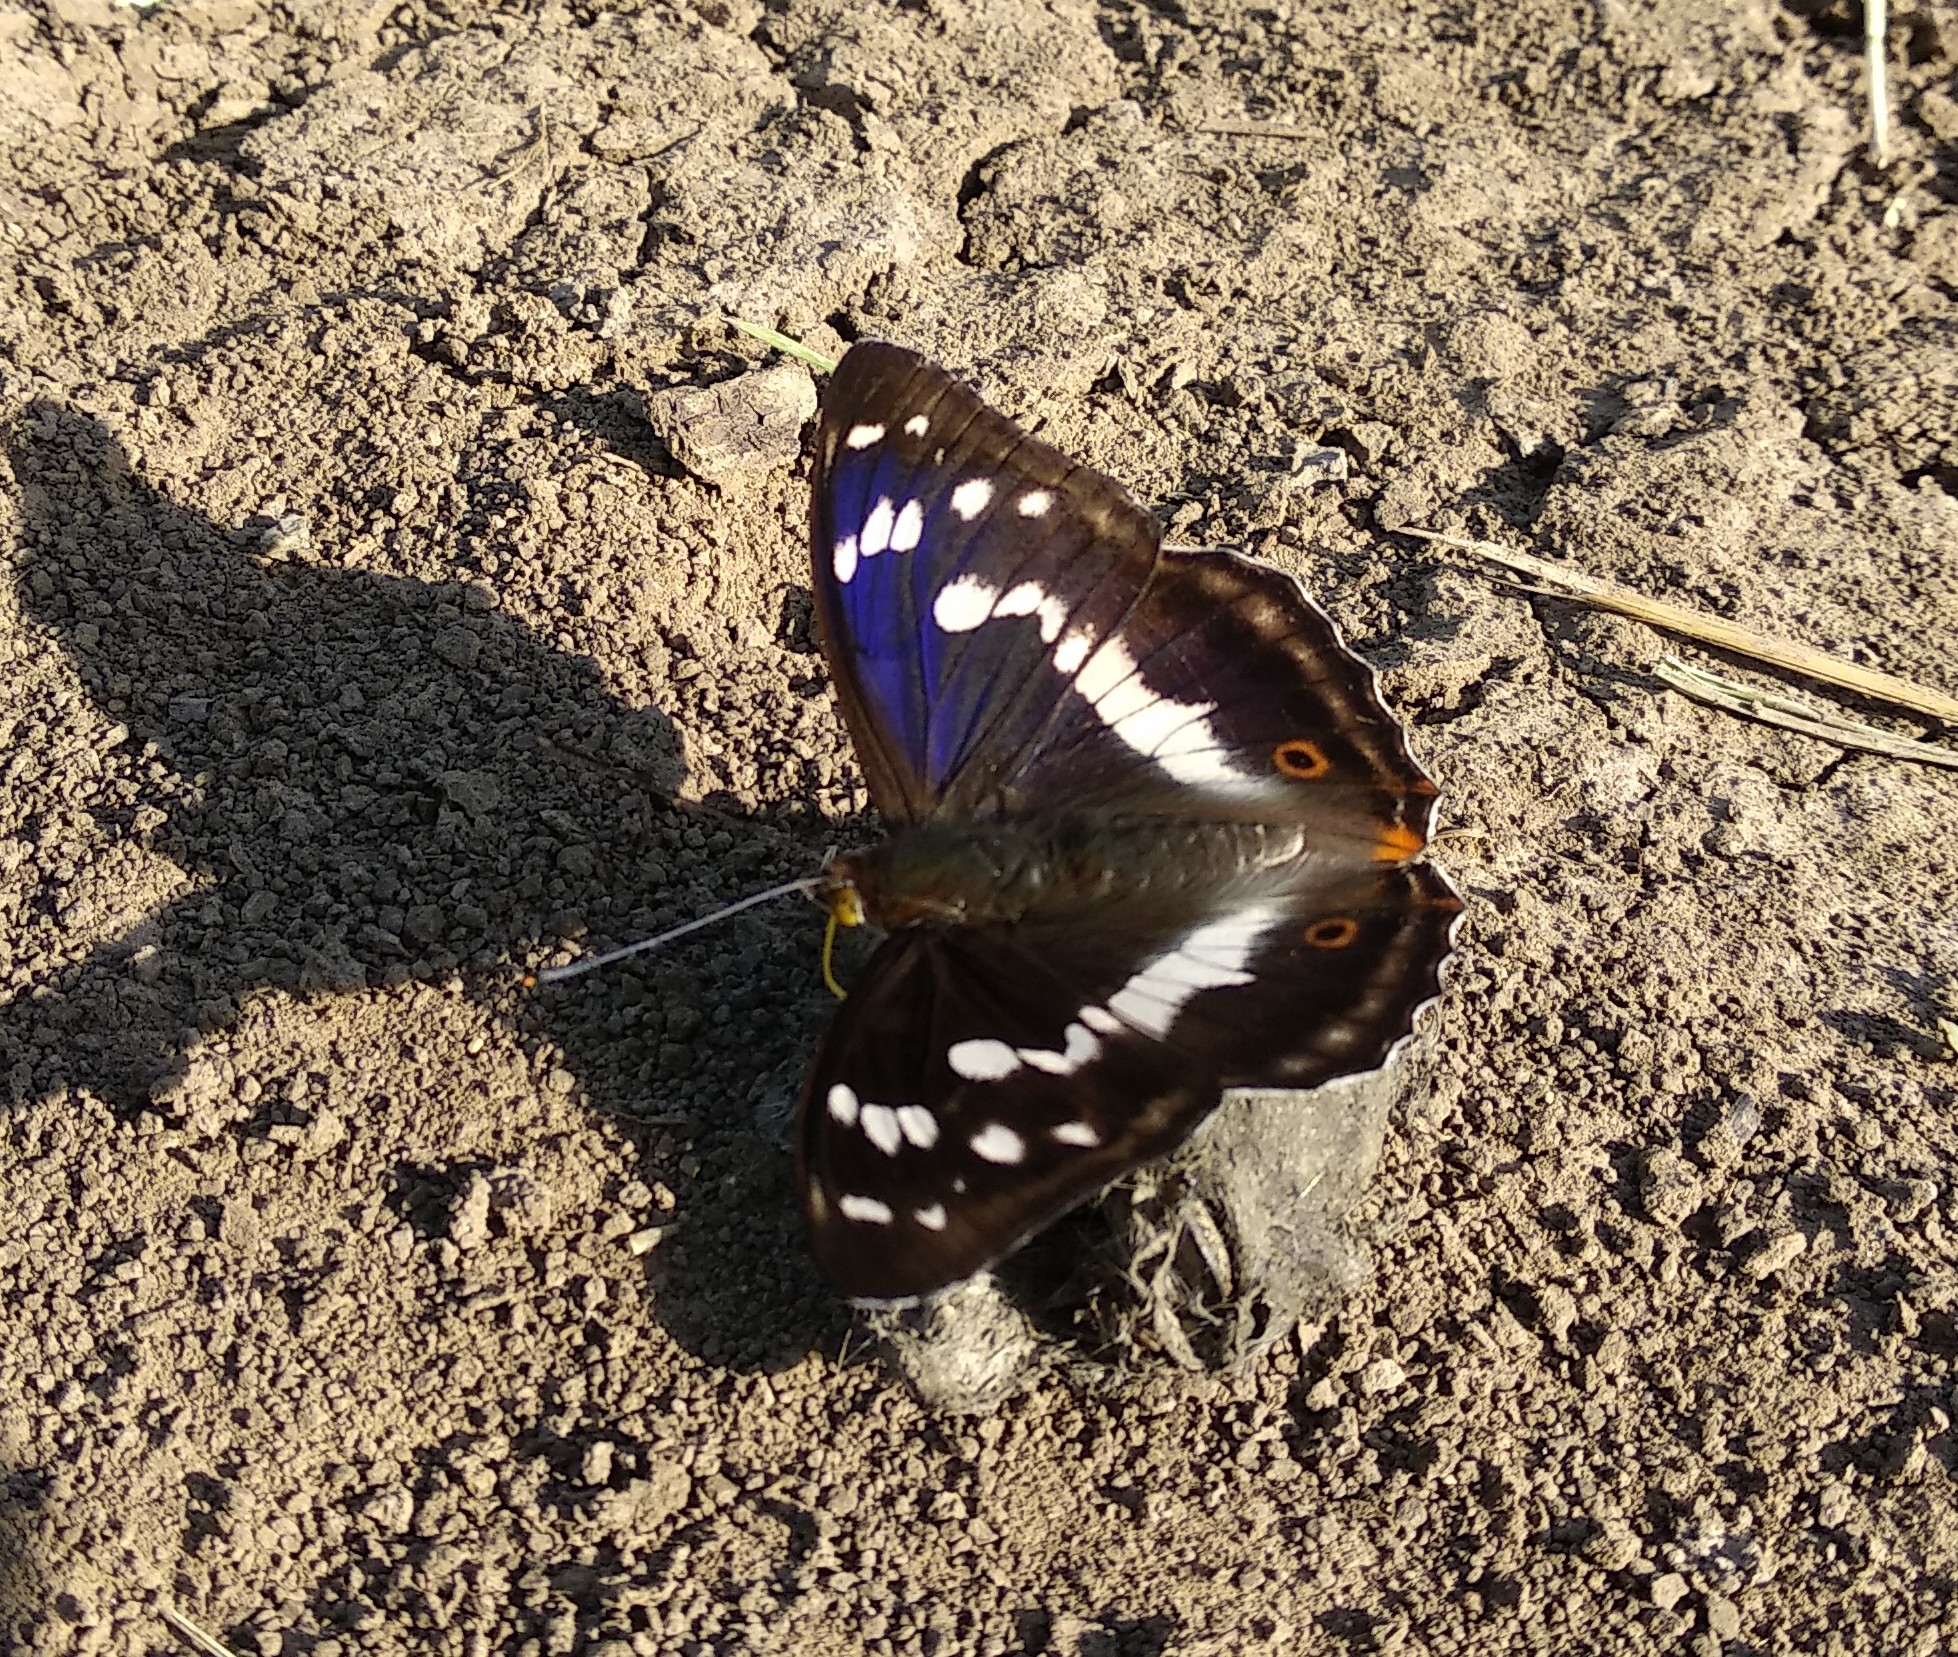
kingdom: Animalia
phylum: Arthropoda
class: Insecta
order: Lepidoptera
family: Nymphalidae
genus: Apatura
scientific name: Apatura iris
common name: Purple emperor
